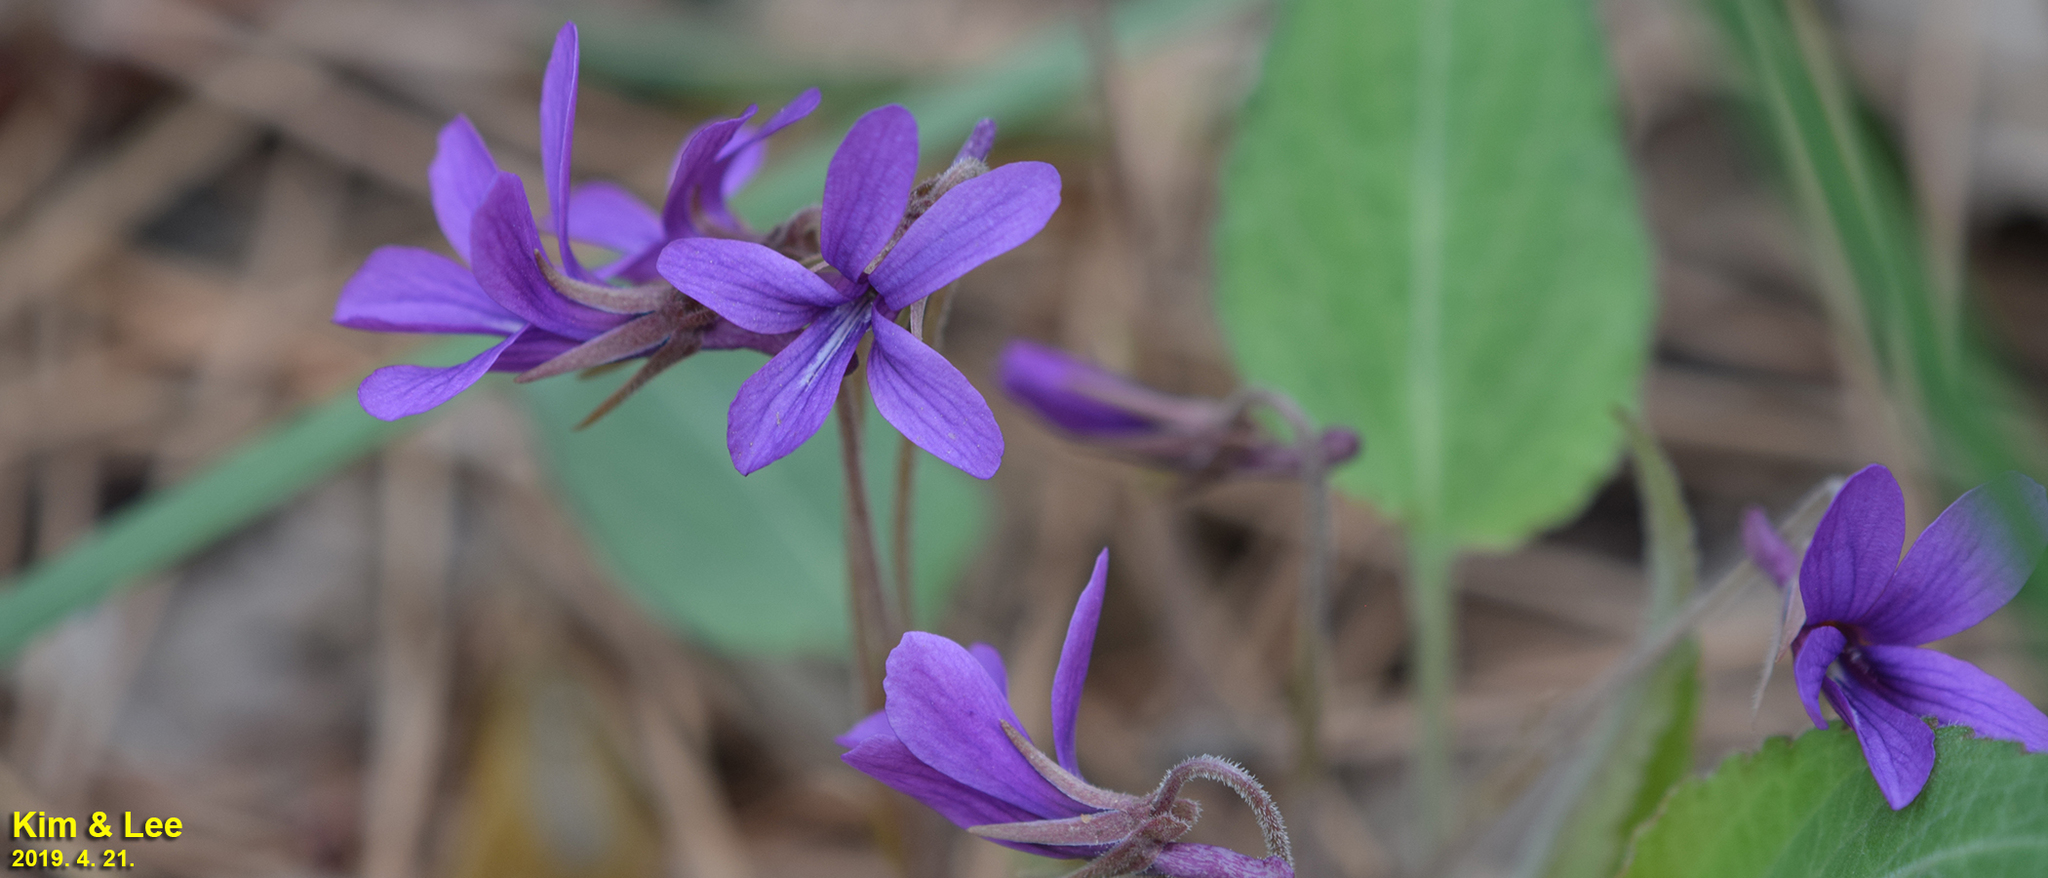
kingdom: Plantae
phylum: Tracheophyta
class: Magnoliopsida
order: Malpighiales
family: Violaceae
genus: Viola
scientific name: Viola phalacrocarpa
